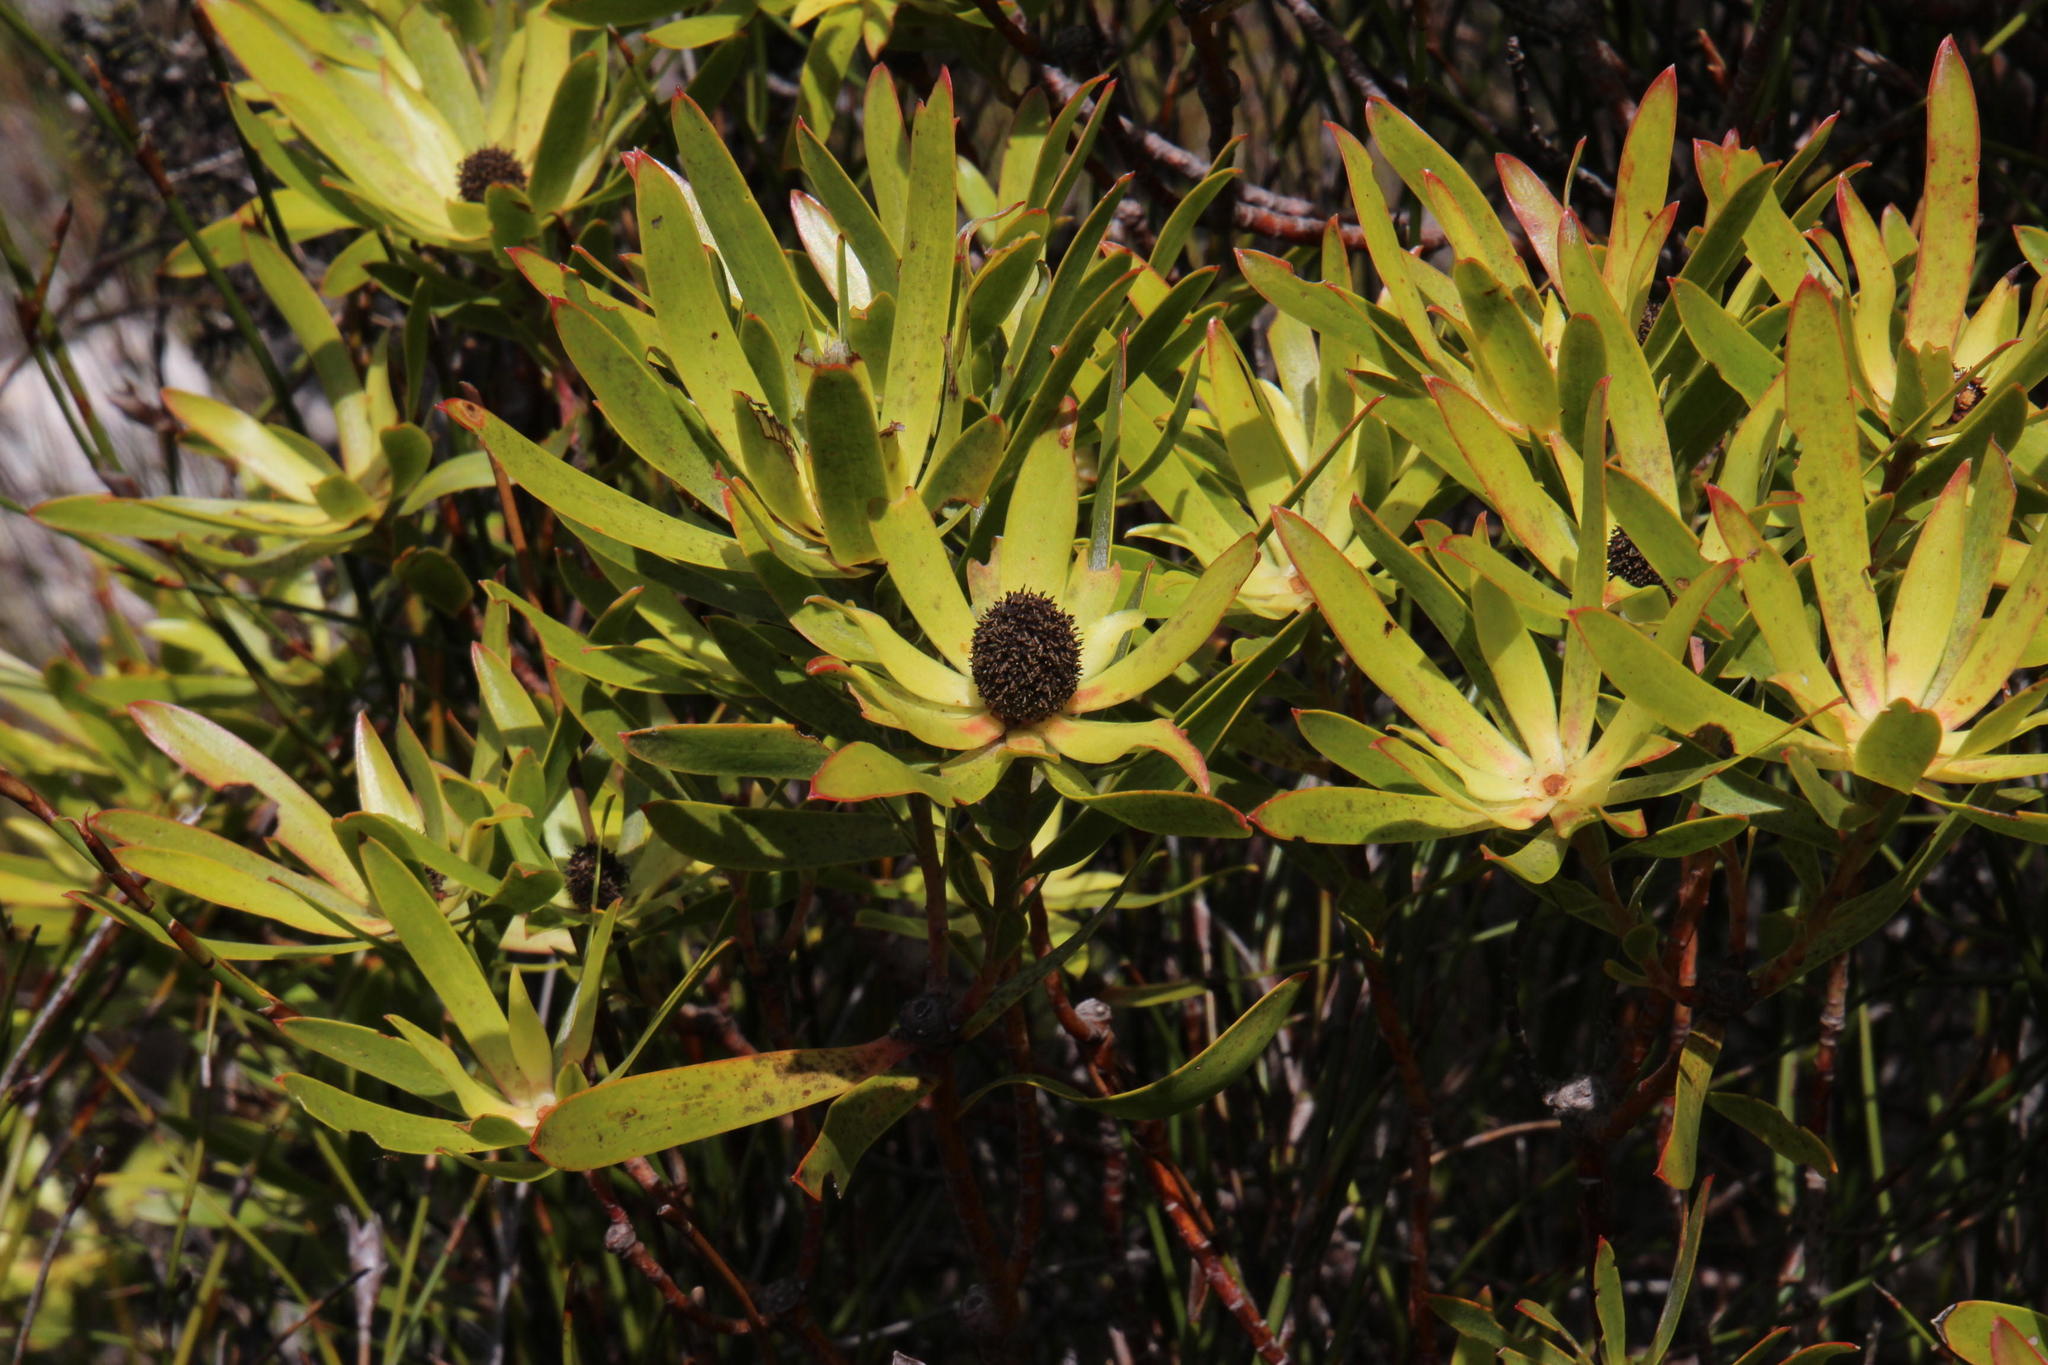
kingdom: Plantae
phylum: Tracheophyta
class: Magnoliopsida
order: Proteales
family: Proteaceae
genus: Leucadendron
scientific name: Leucadendron gandogeri
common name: Broad-leaf conebush
